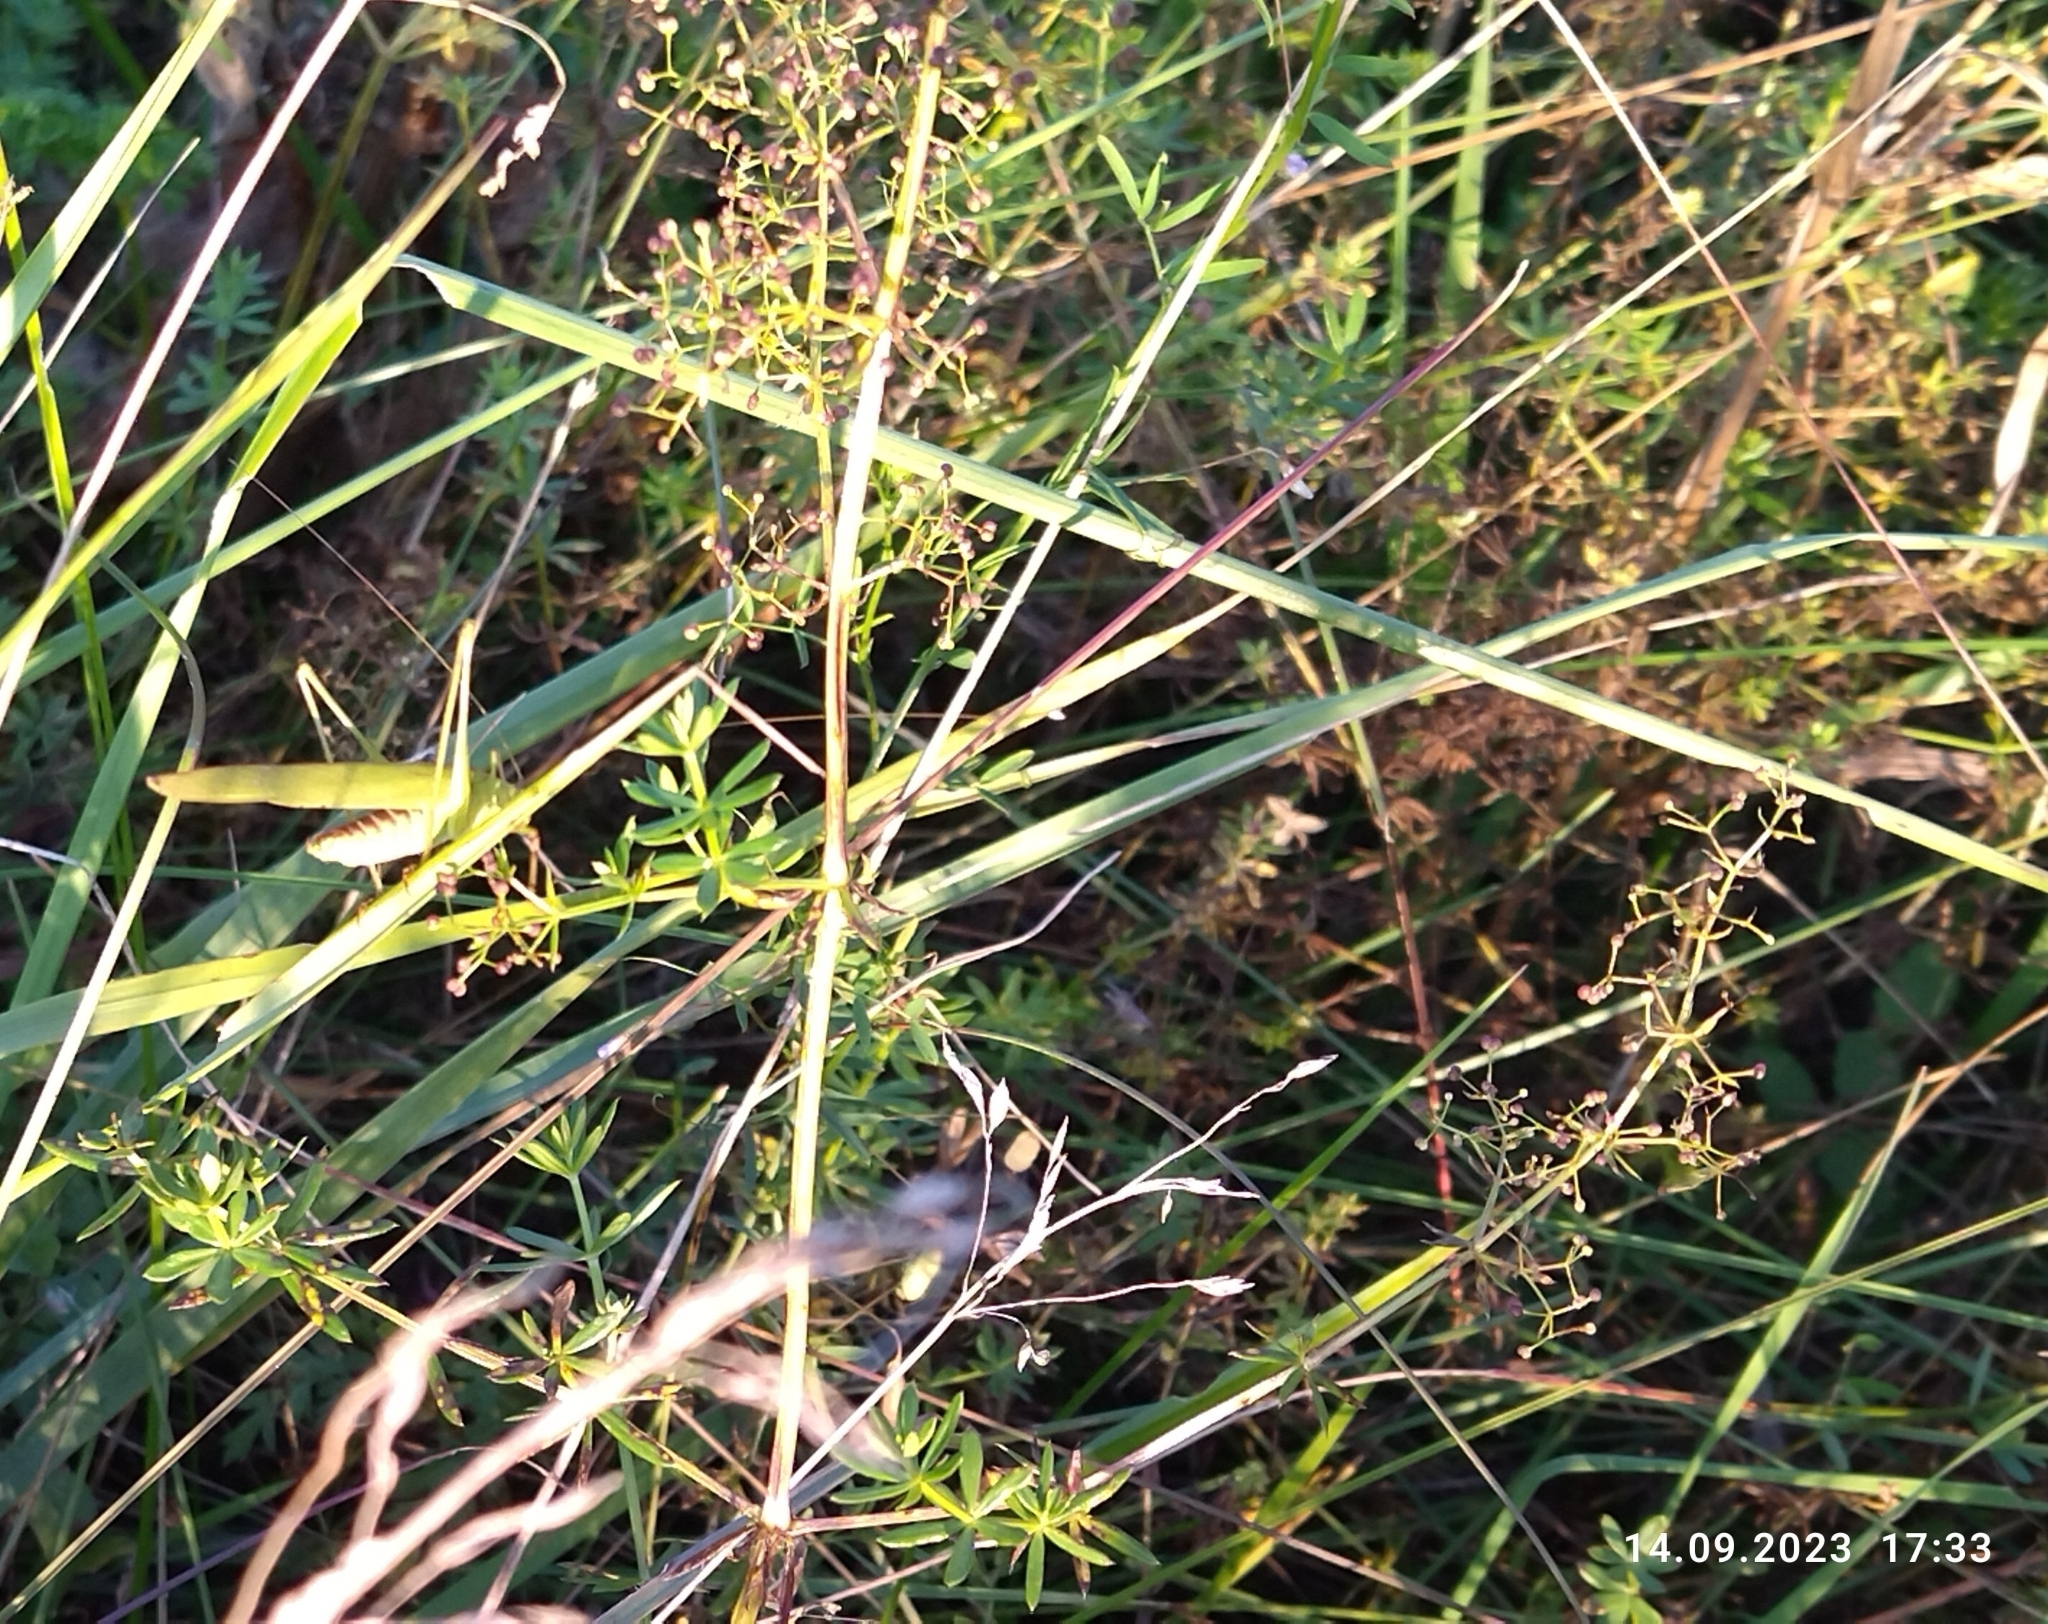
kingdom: Plantae
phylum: Tracheophyta
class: Magnoliopsida
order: Gentianales
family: Rubiaceae
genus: Galium
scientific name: Galium mollugo
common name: Hedge bedstraw
